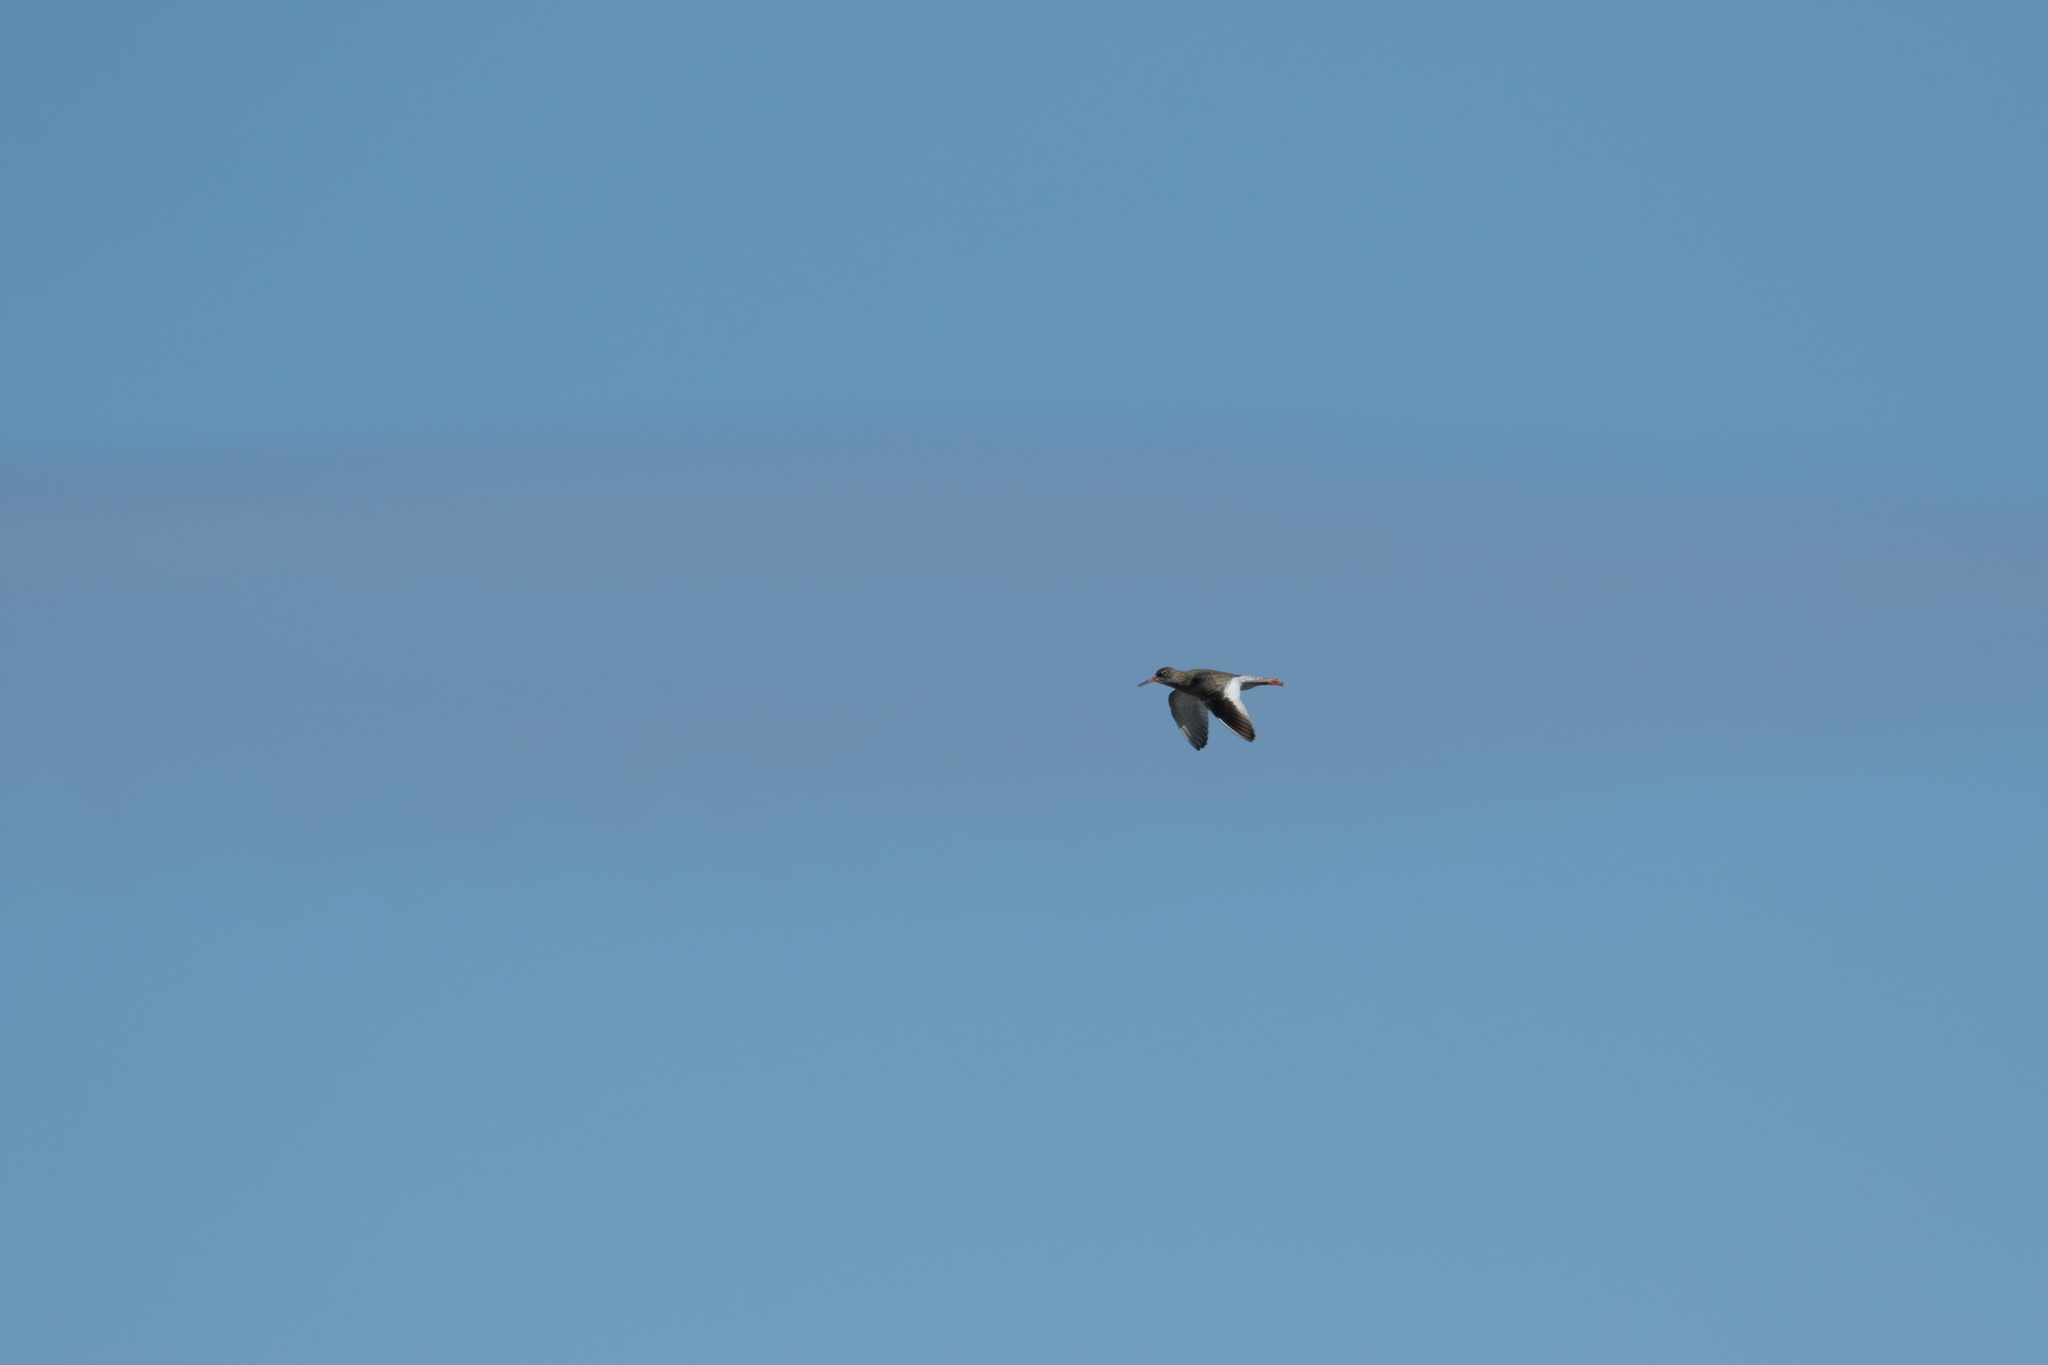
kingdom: Animalia
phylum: Chordata
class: Aves
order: Charadriiformes
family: Scolopacidae
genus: Tringa
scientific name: Tringa totanus
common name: Common redshank
